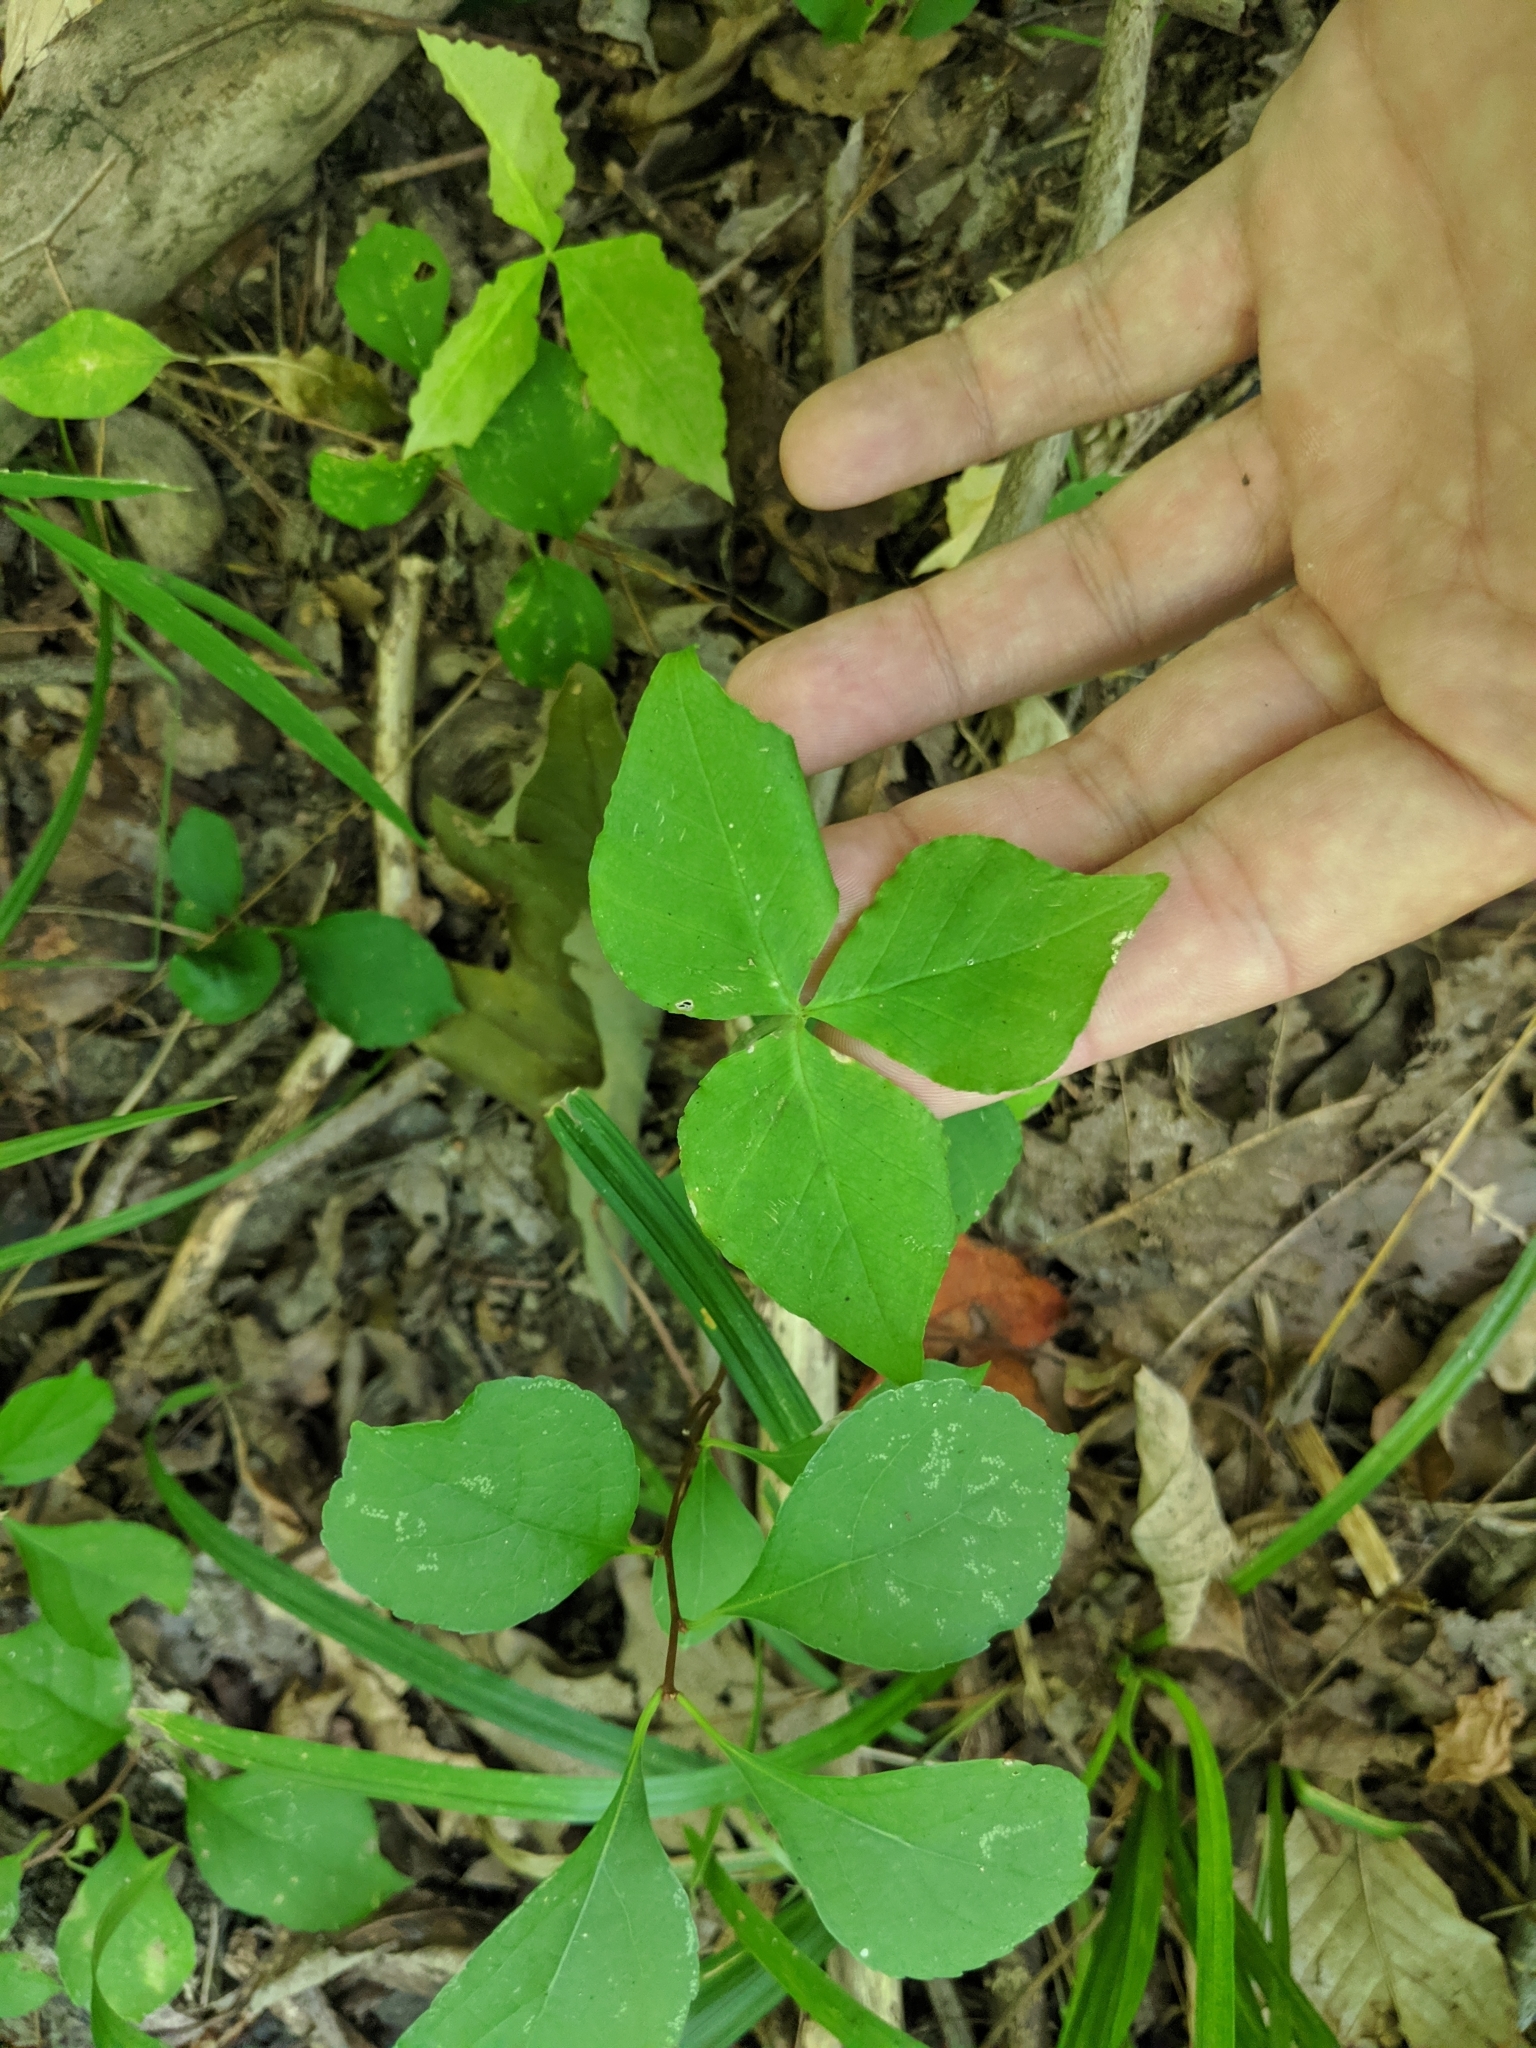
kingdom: Plantae
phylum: Tracheophyta
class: Liliopsida
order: Alismatales
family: Araceae
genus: Arisaema
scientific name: Arisaema triphyllum
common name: Jack-in-the-pulpit
